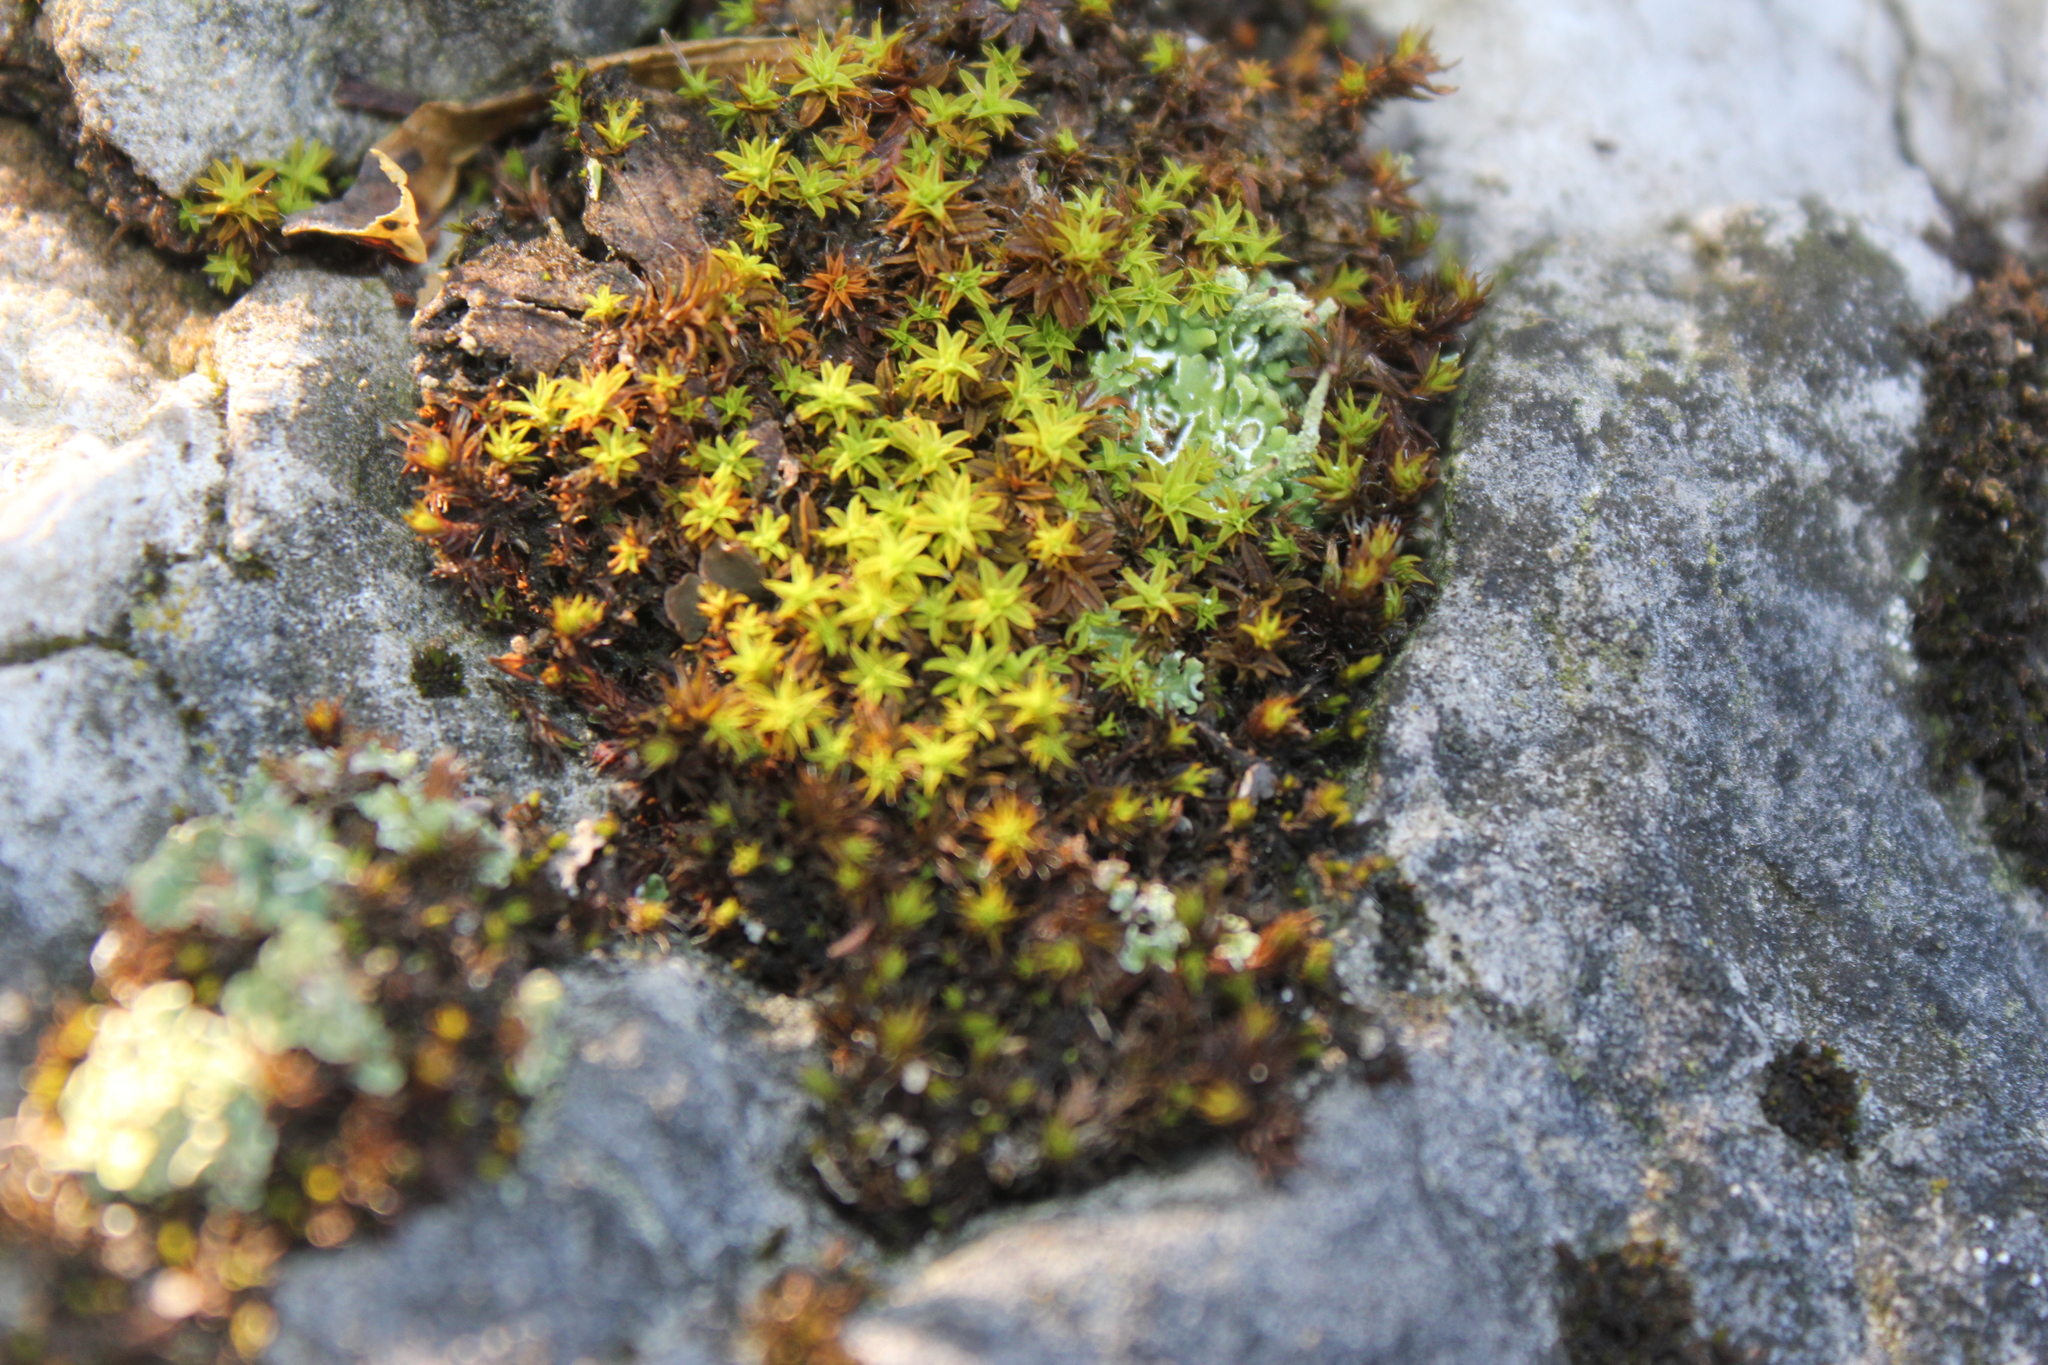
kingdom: Plantae
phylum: Bryophyta
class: Bryopsida
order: Pottiales
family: Pottiaceae
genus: Syntrichia
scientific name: Syntrichia ruralis
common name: Sidewalk screw moss
